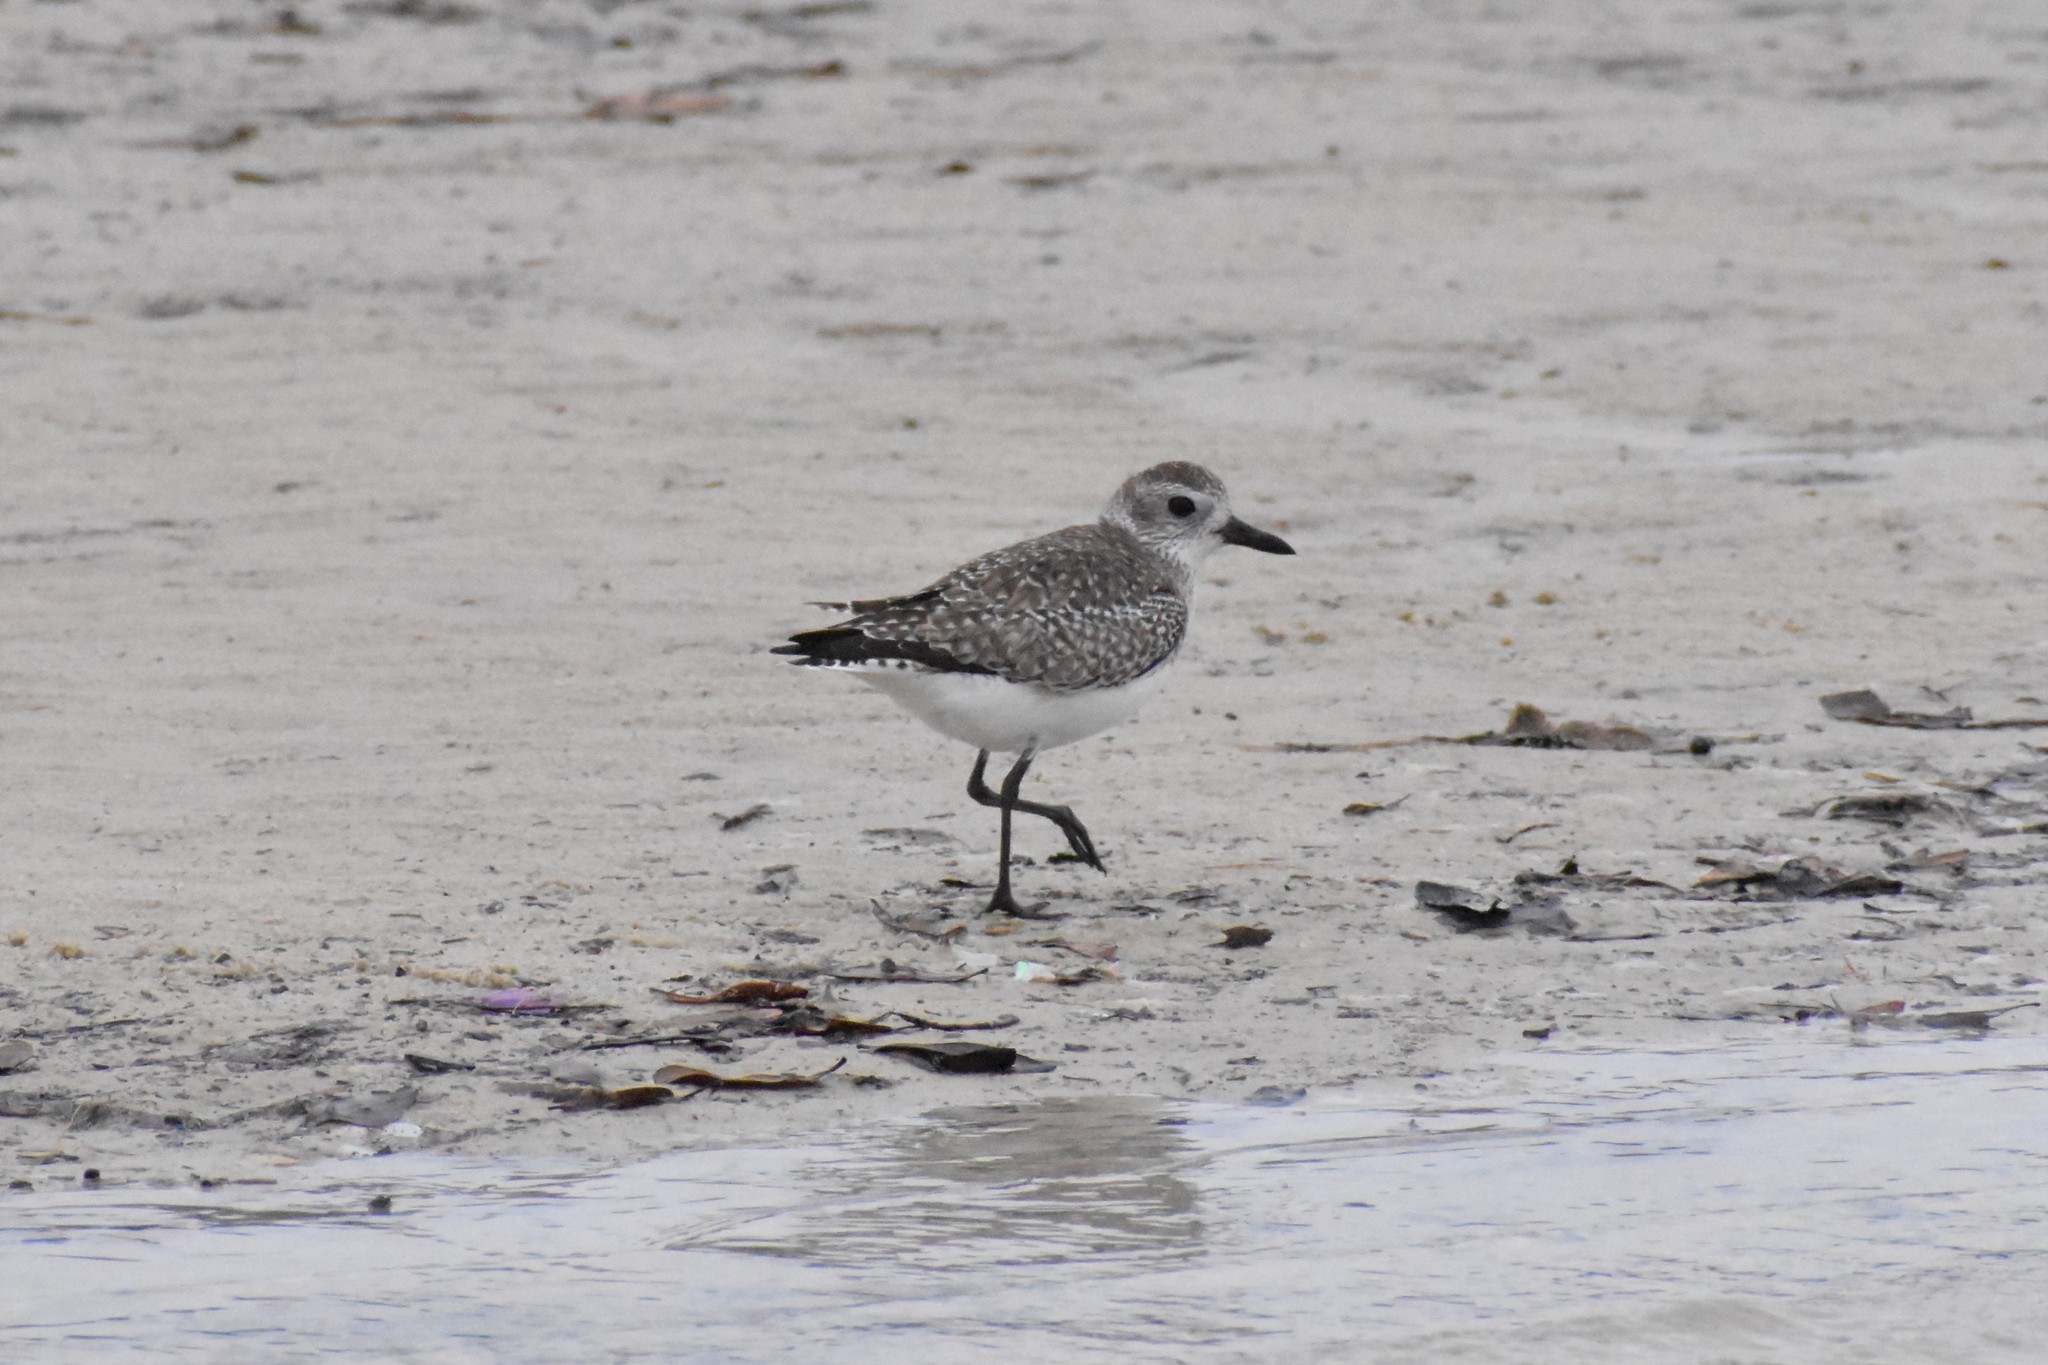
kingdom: Animalia
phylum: Chordata
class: Aves
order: Charadriiformes
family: Charadriidae
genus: Pluvialis
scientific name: Pluvialis squatarola
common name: Grey plover
